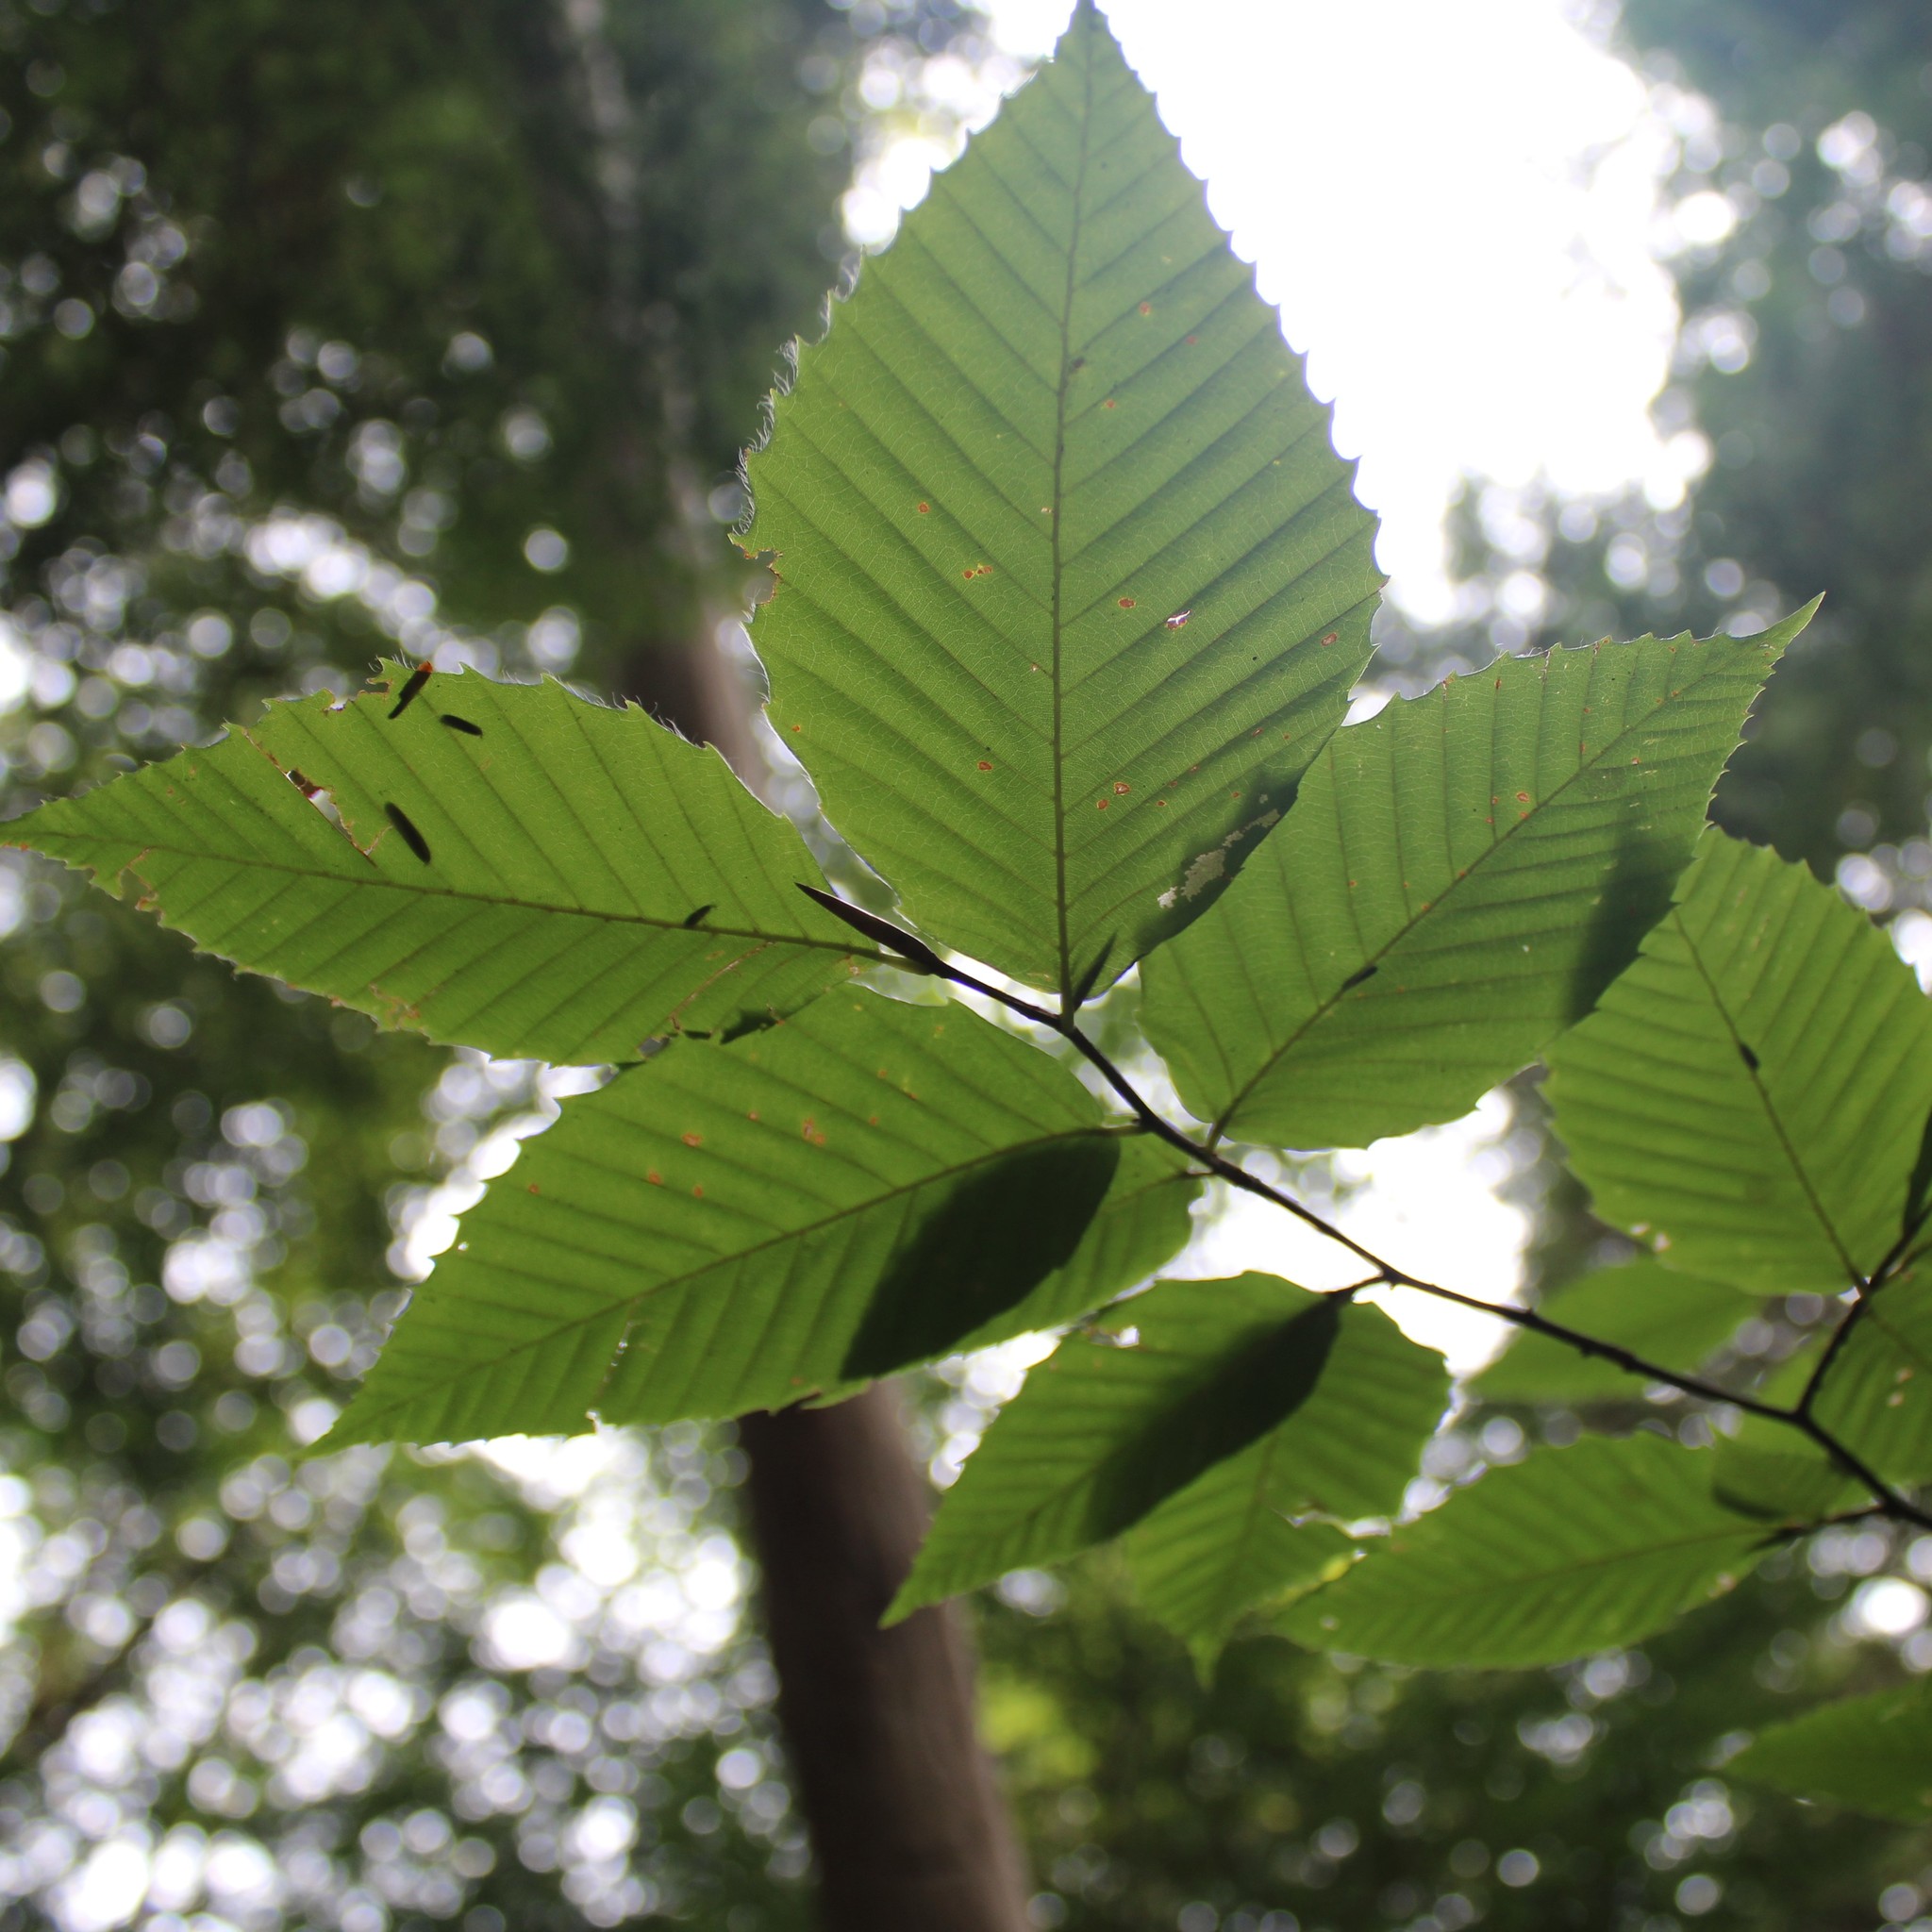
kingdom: Plantae
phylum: Tracheophyta
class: Magnoliopsida
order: Fagales
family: Fagaceae
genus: Fagus
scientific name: Fagus grandifolia
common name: American beech
